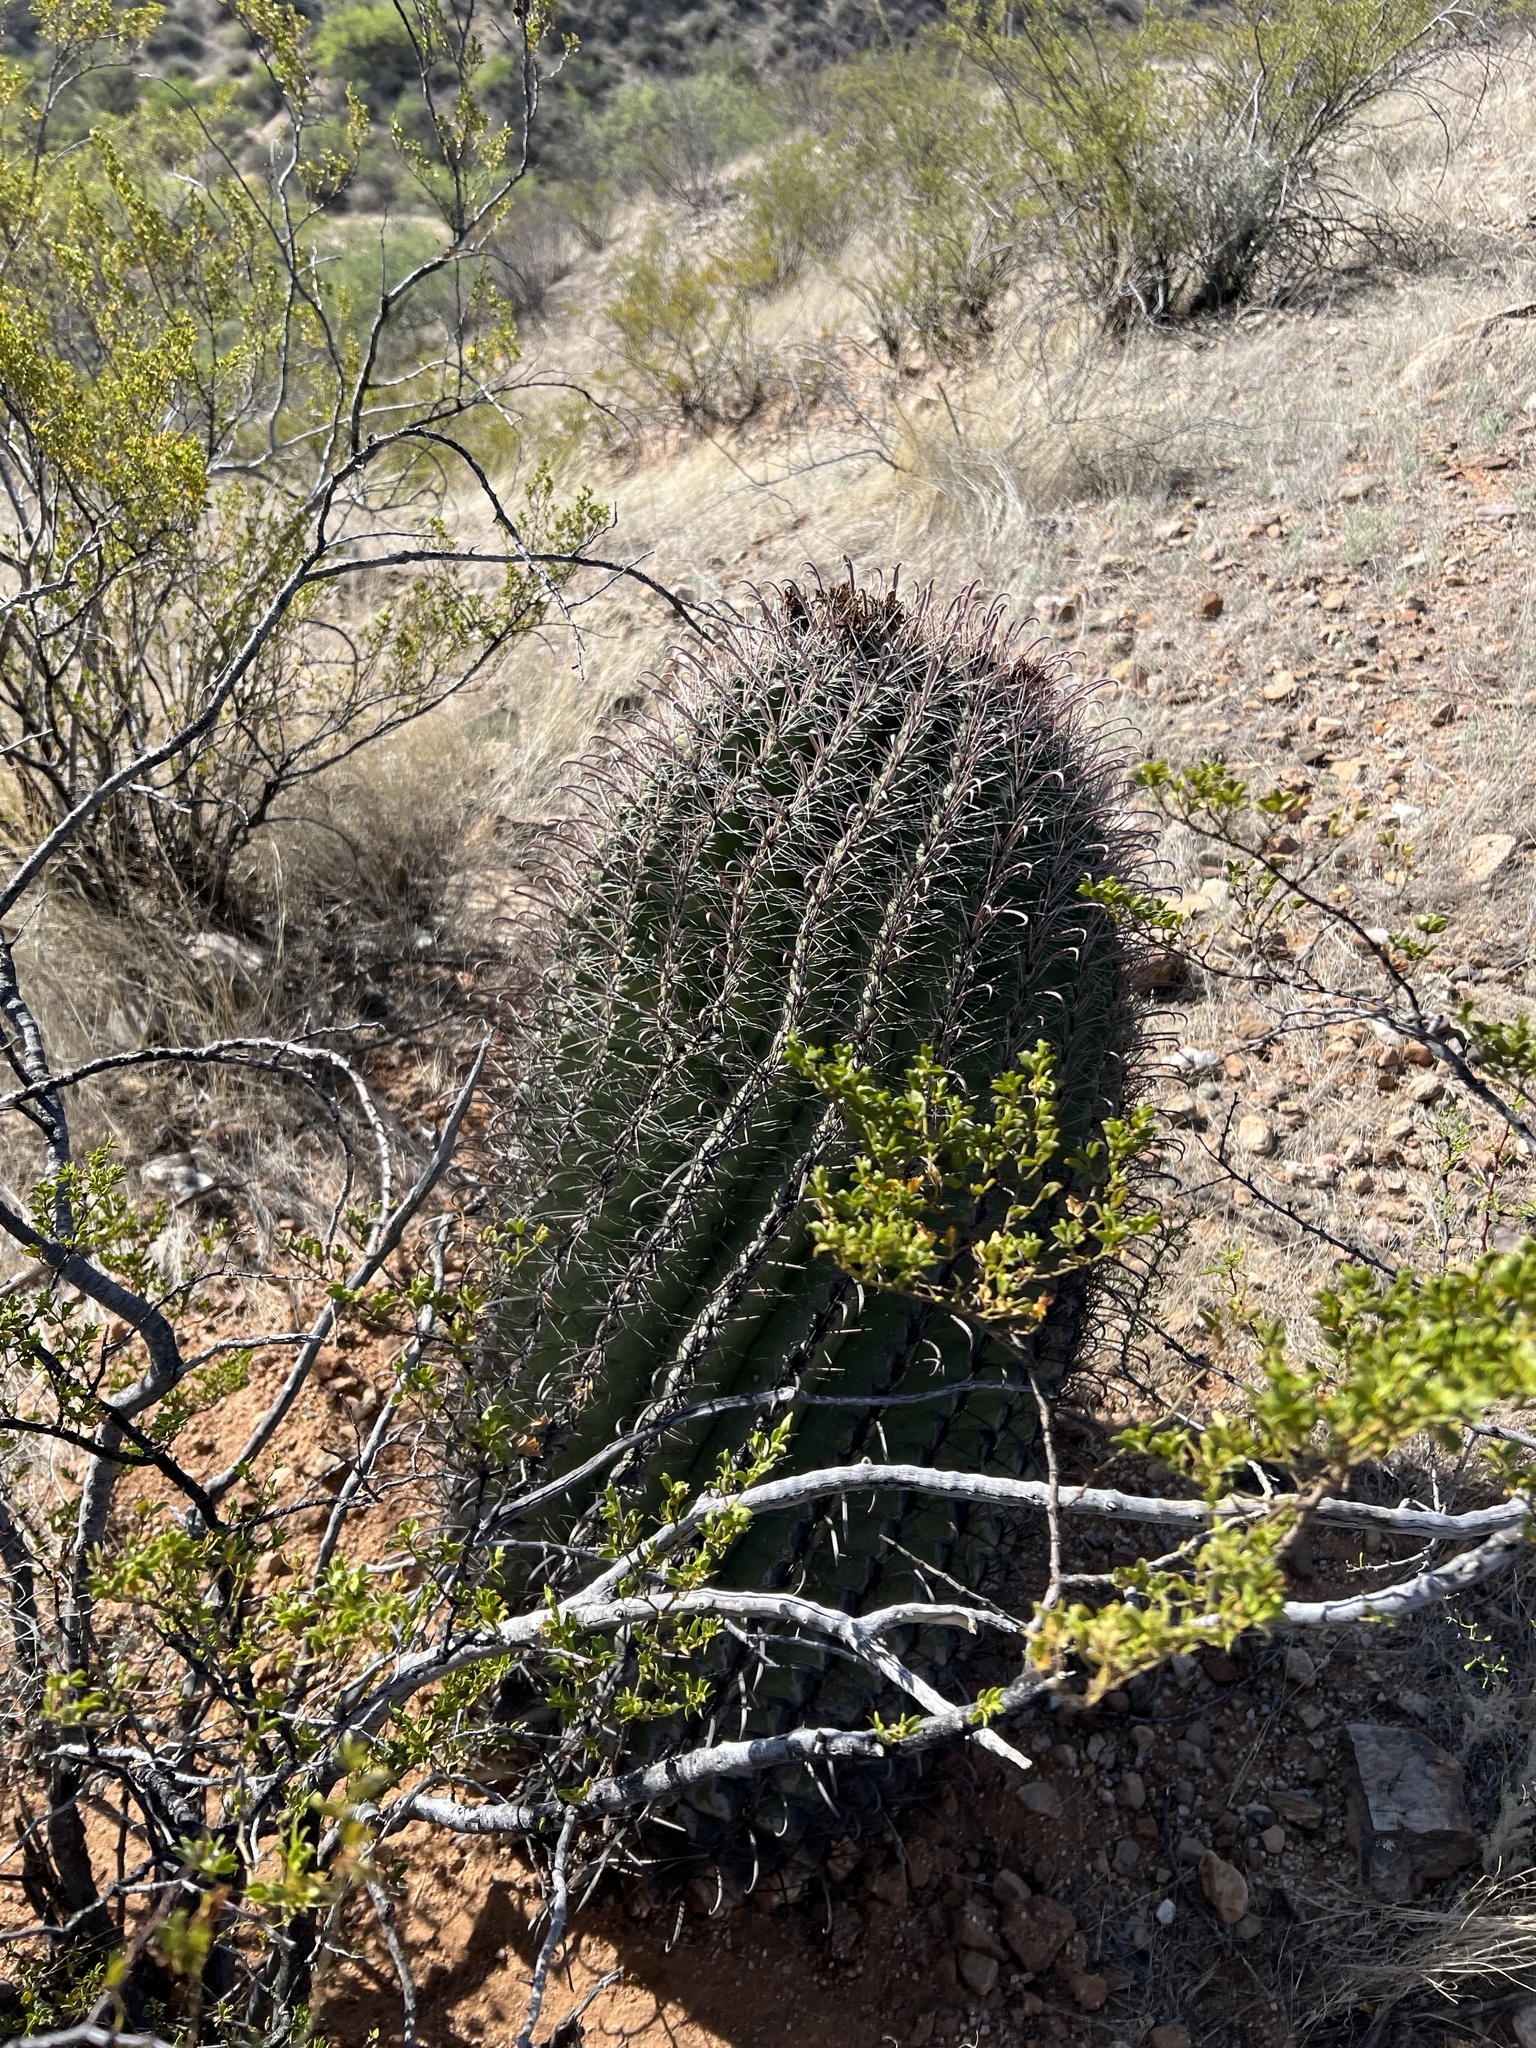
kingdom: Plantae
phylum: Tracheophyta
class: Magnoliopsida
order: Caryophyllales
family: Cactaceae
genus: Ferocactus
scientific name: Ferocactus wislizeni
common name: Candy barrel cactus
